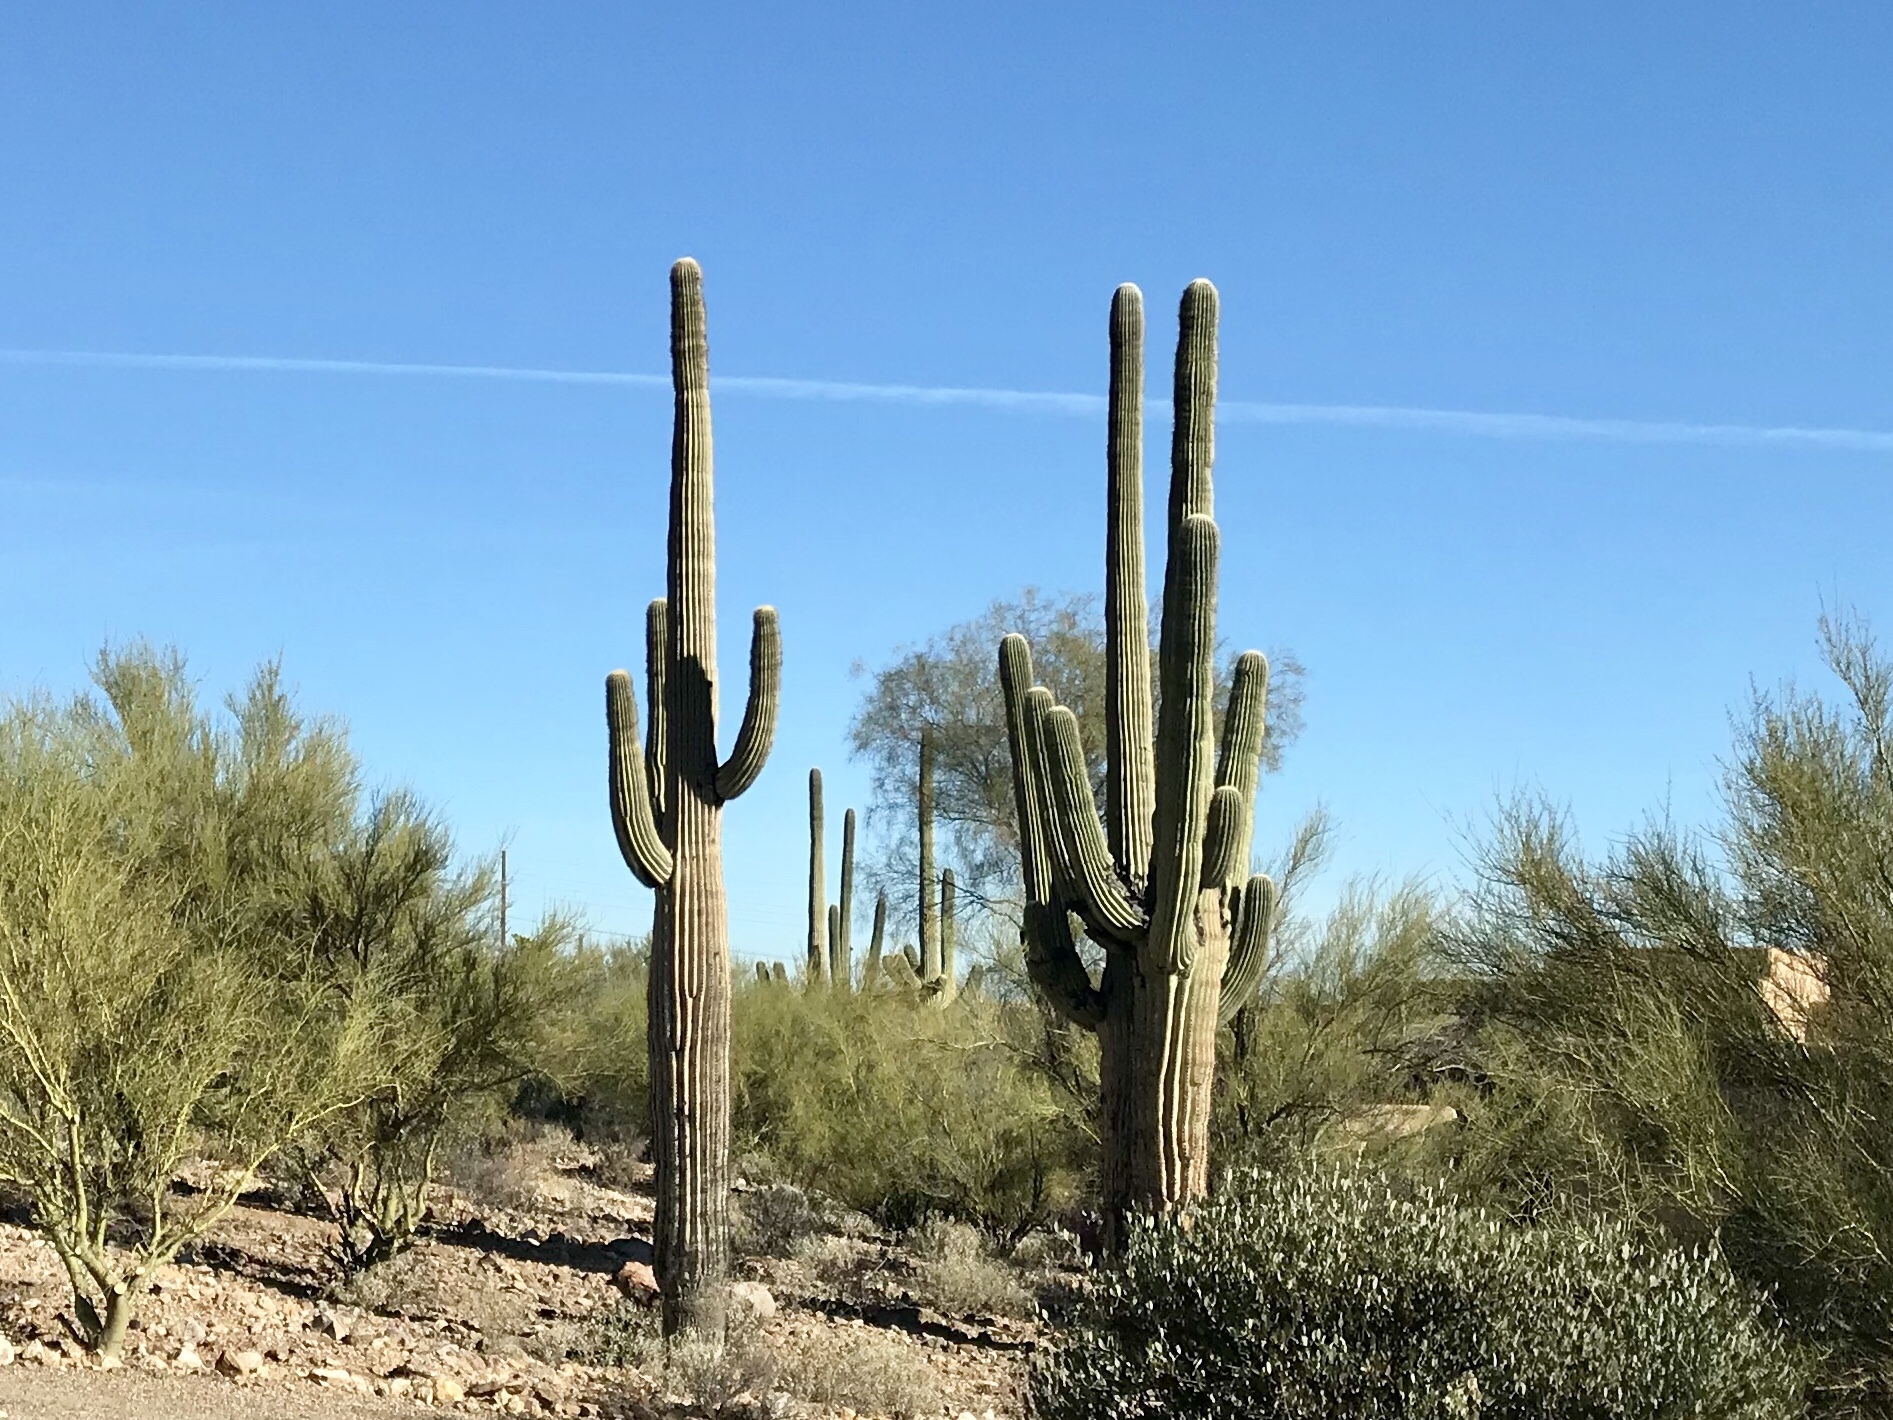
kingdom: Plantae
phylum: Tracheophyta
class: Magnoliopsida
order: Caryophyllales
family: Cactaceae
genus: Carnegiea
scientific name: Carnegiea gigantea
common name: Saguaro
